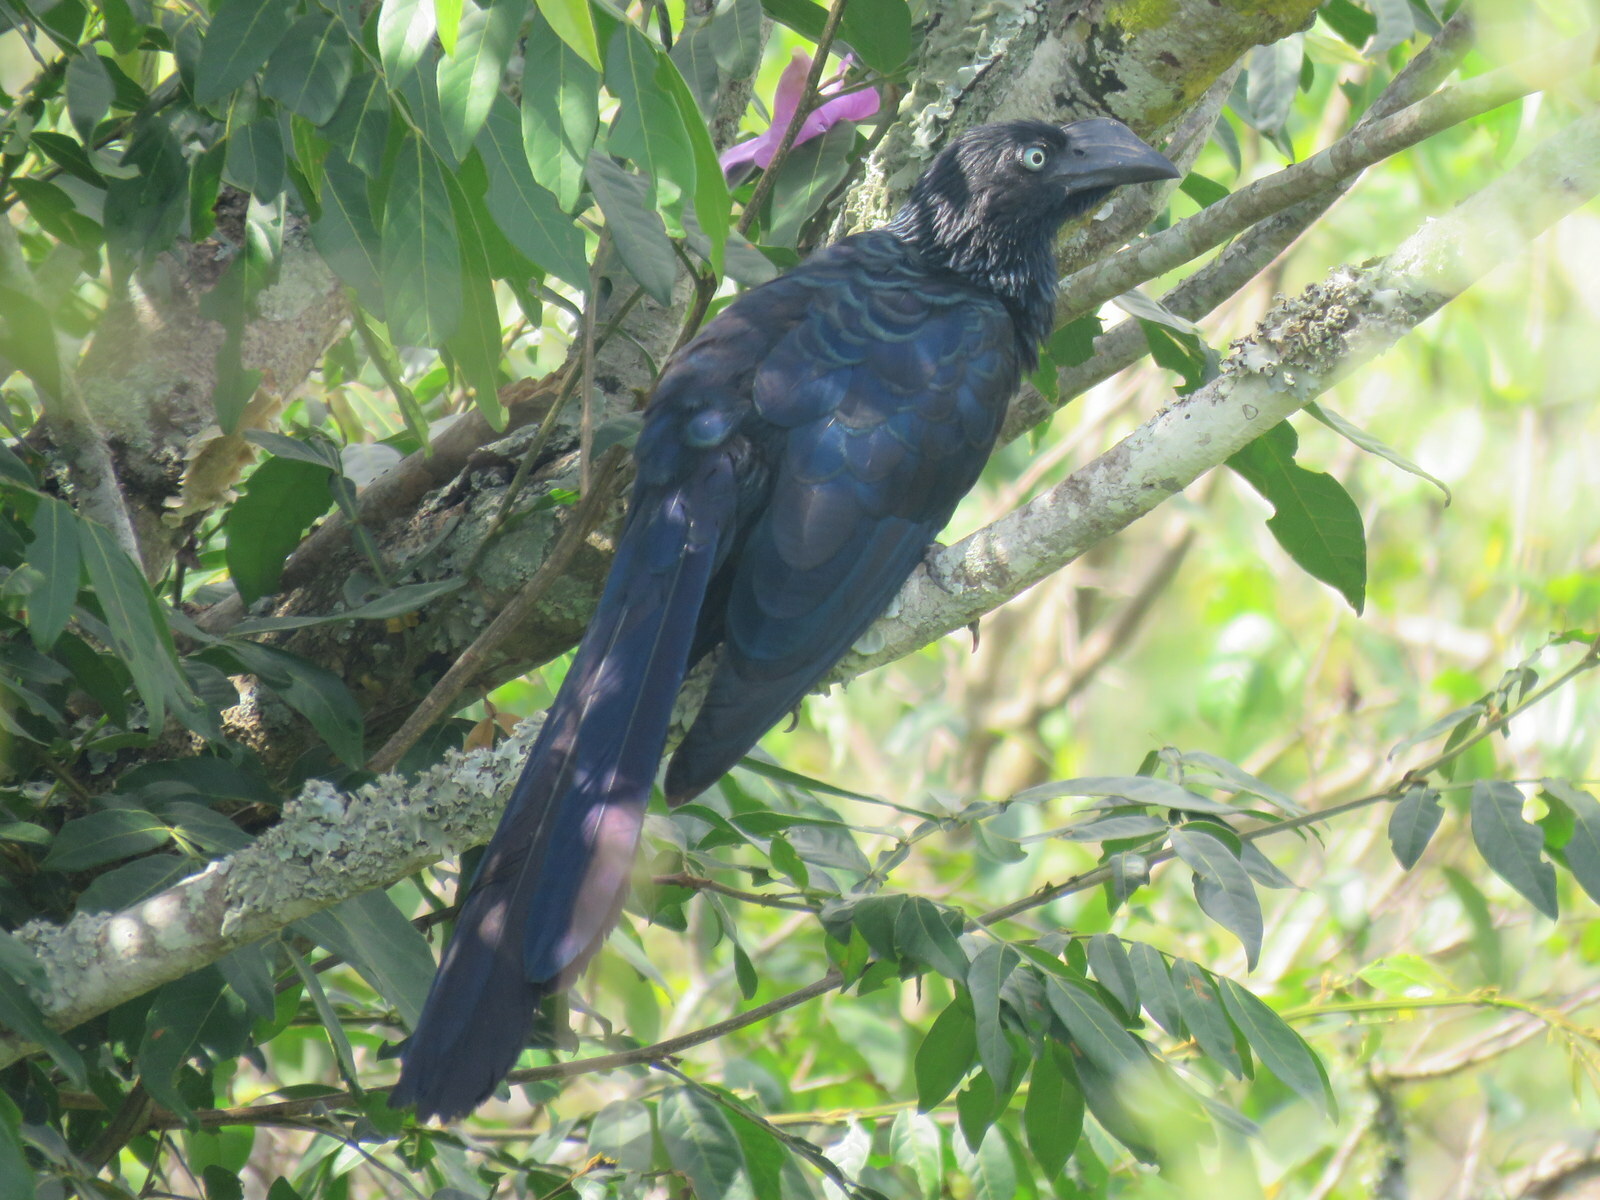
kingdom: Animalia
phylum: Chordata
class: Aves
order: Cuculiformes
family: Cuculidae
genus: Crotophaga
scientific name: Crotophaga major
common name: Greater ani
